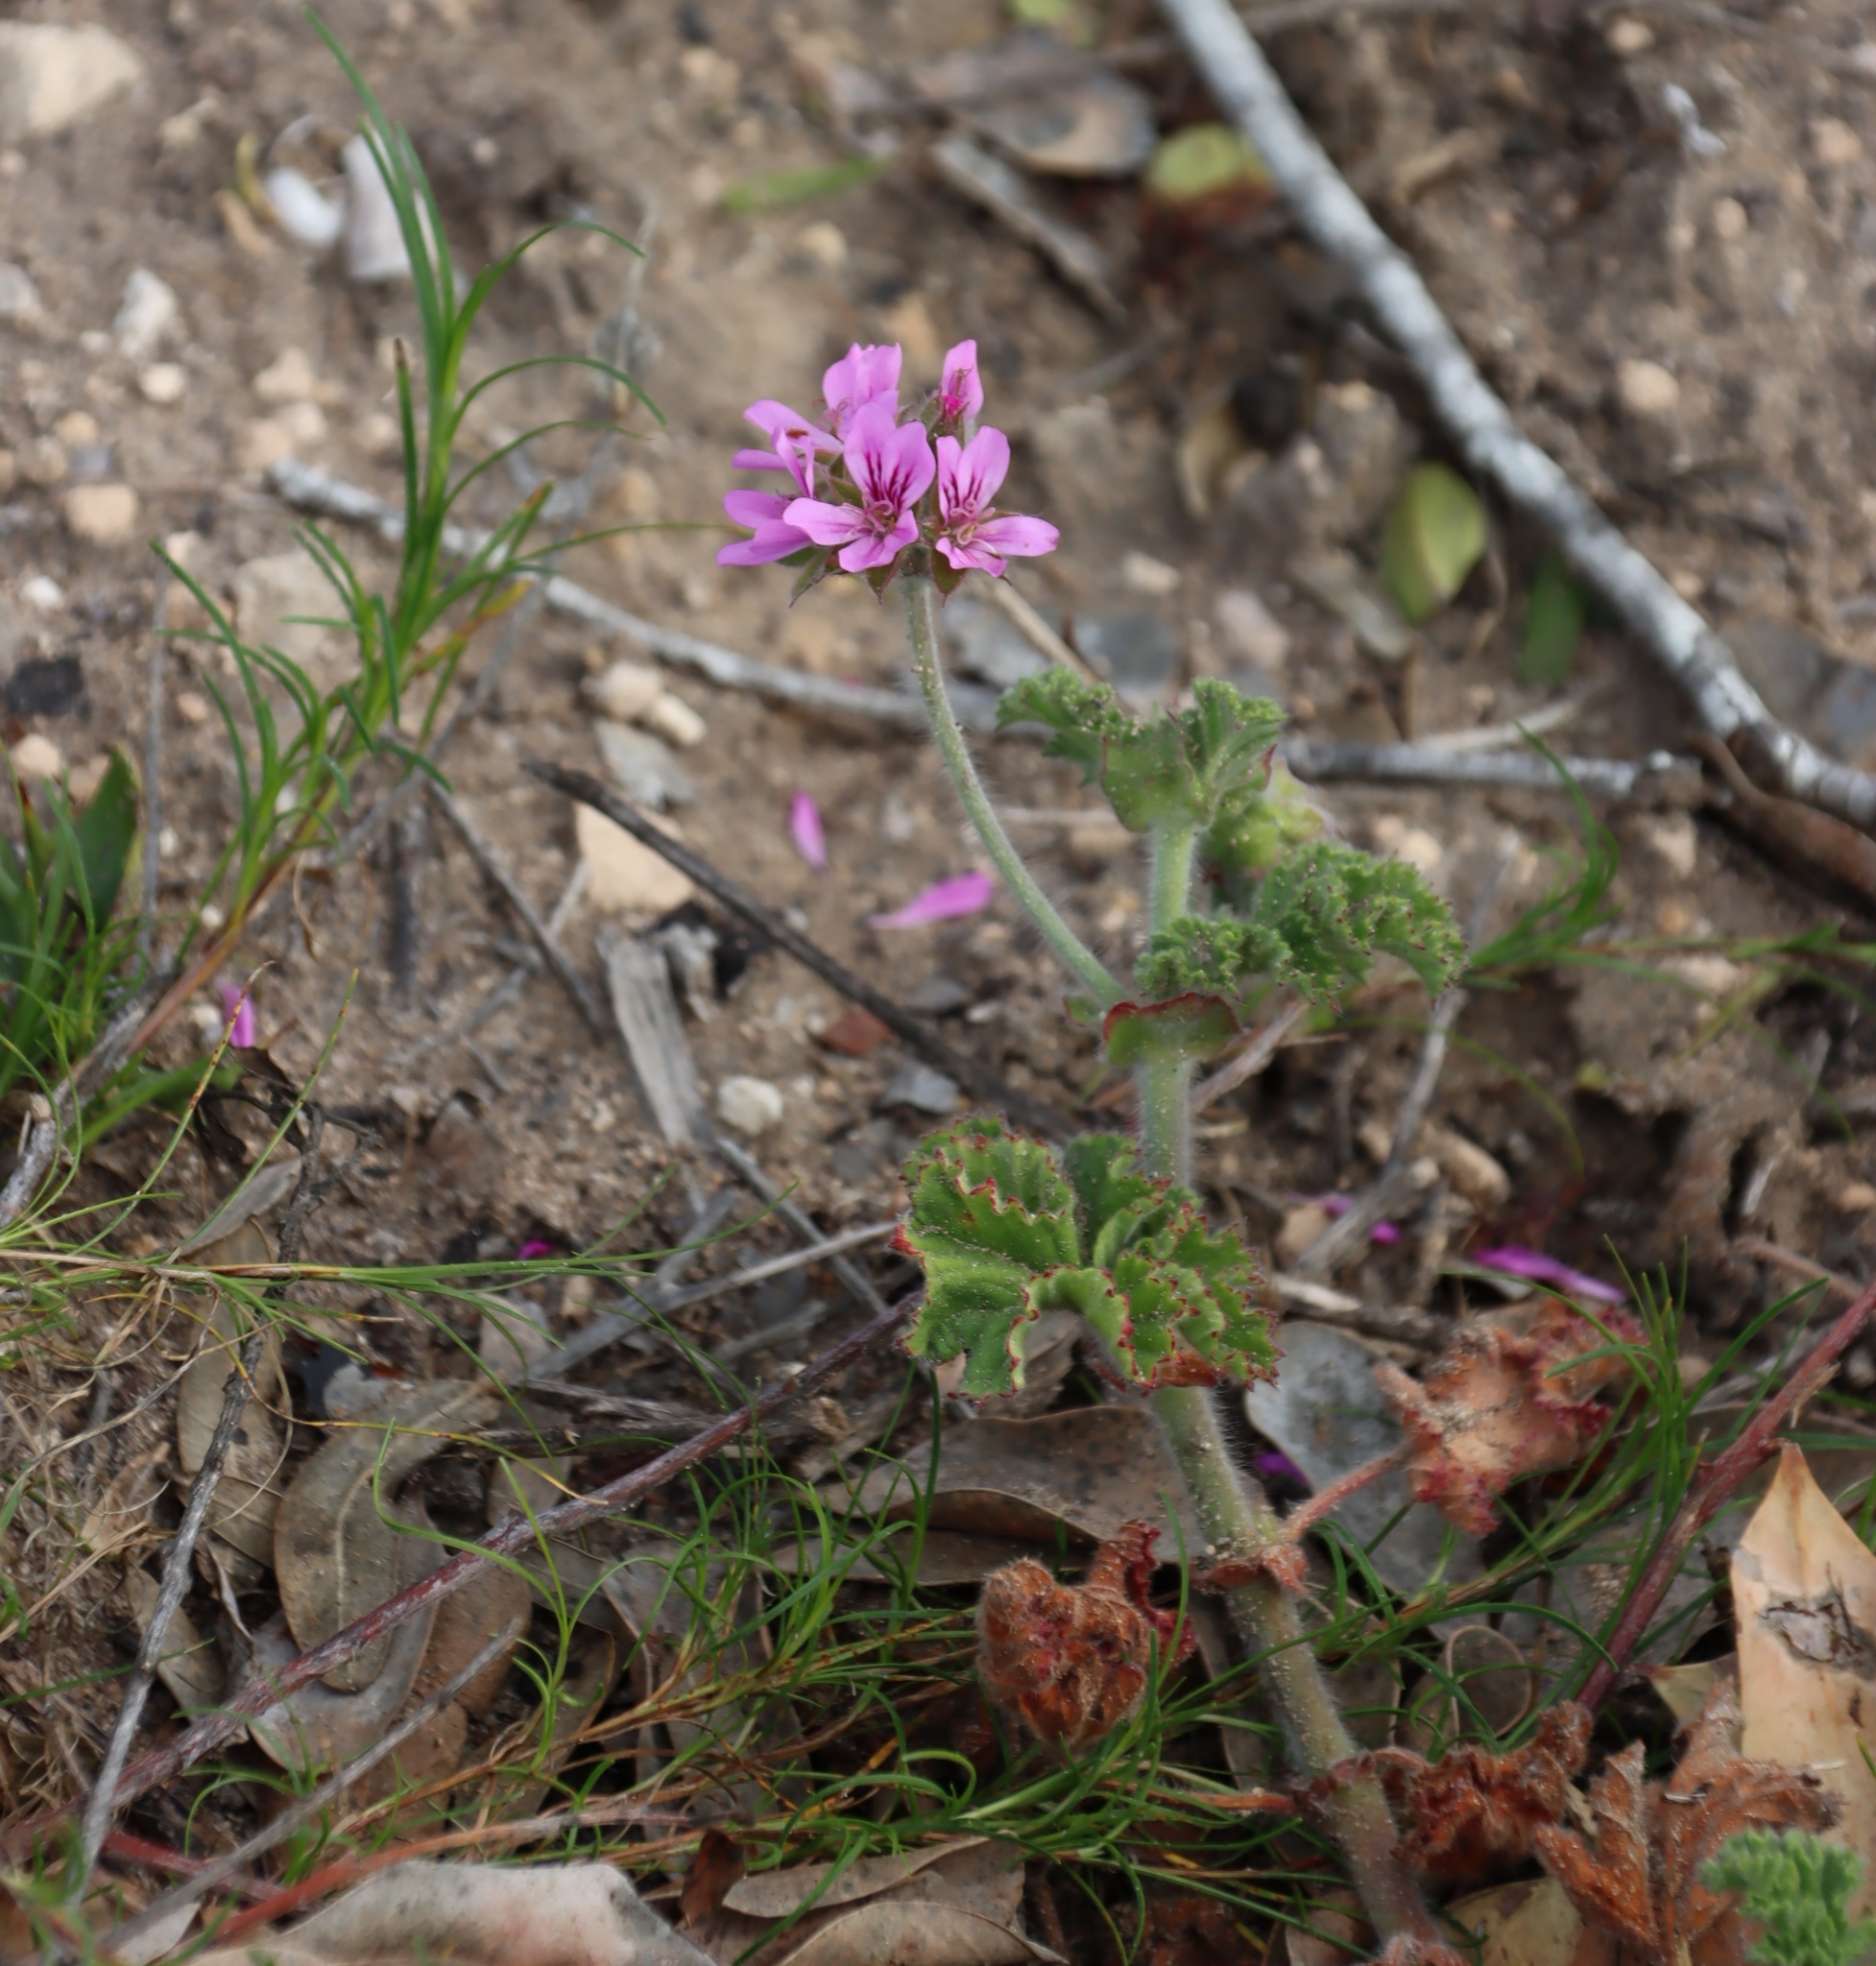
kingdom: Plantae
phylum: Tracheophyta
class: Magnoliopsida
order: Geraniales
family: Geraniaceae
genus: Pelargonium
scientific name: Pelargonium capitatum
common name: Rose scented geranium
